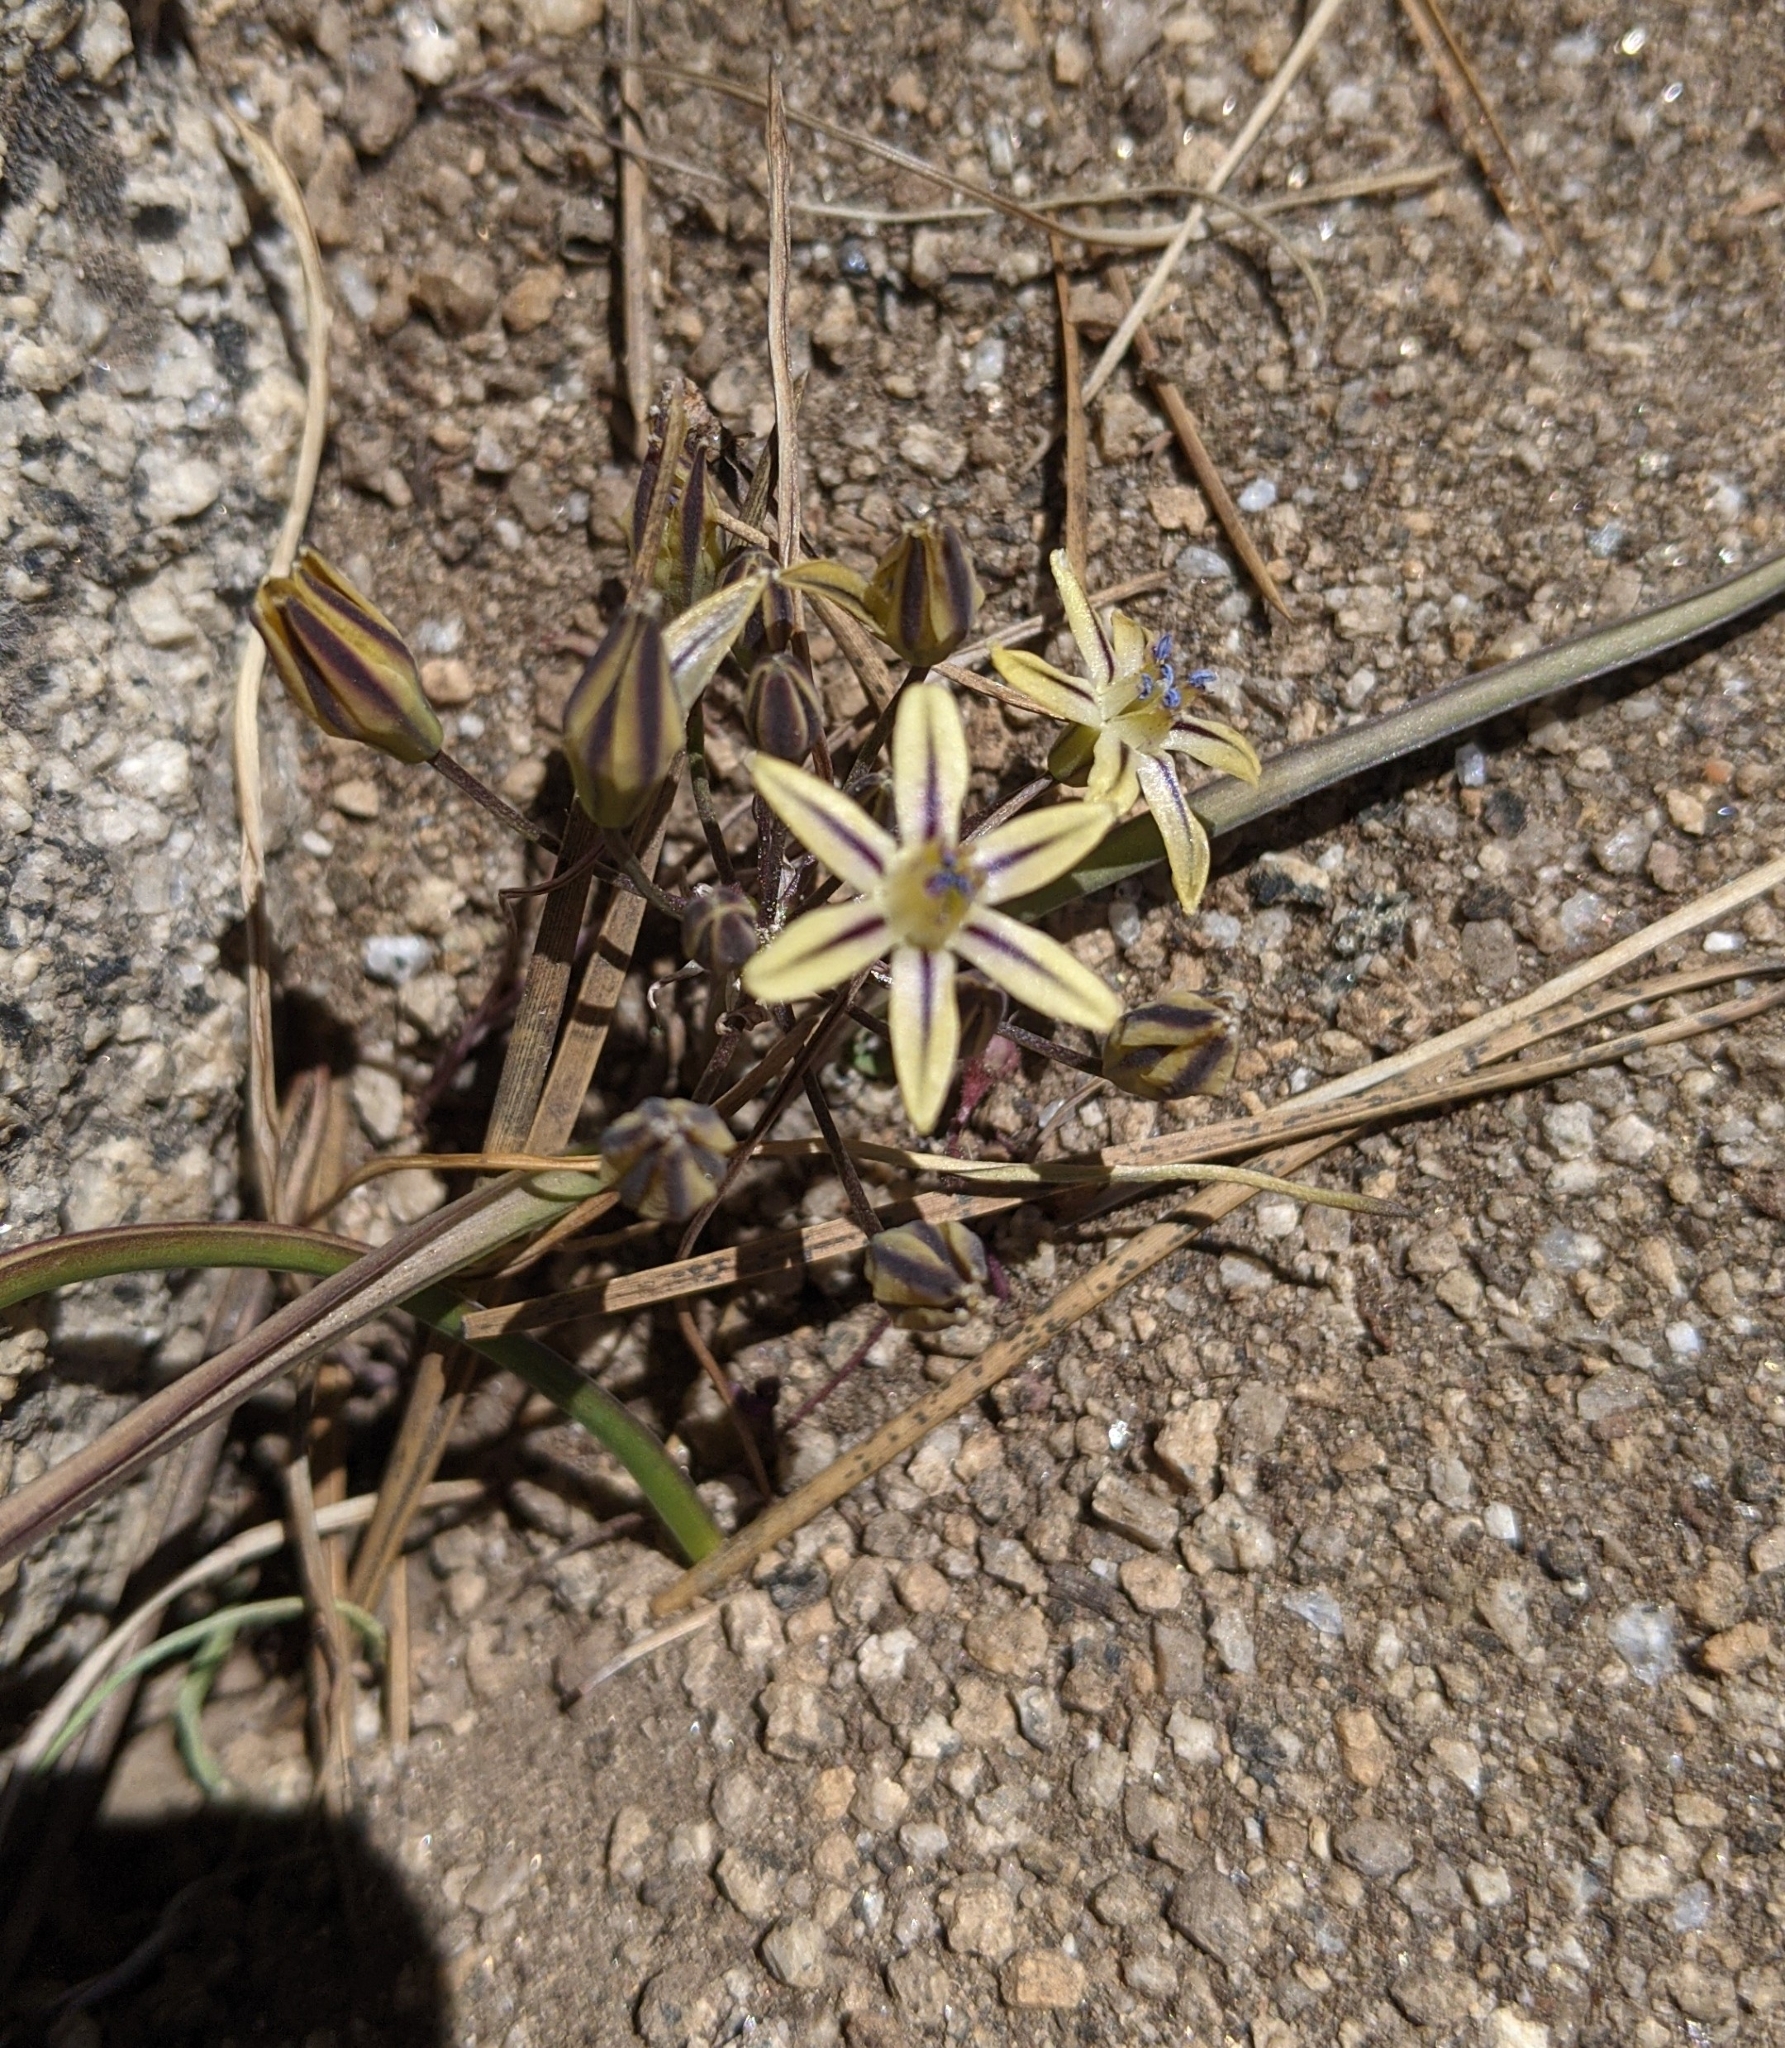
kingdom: Plantae
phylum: Tracheophyta
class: Liliopsida
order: Asparagales
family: Asparagaceae
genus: Triteleia
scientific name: Triteleia ixioides
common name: Yellow-brodiaea
